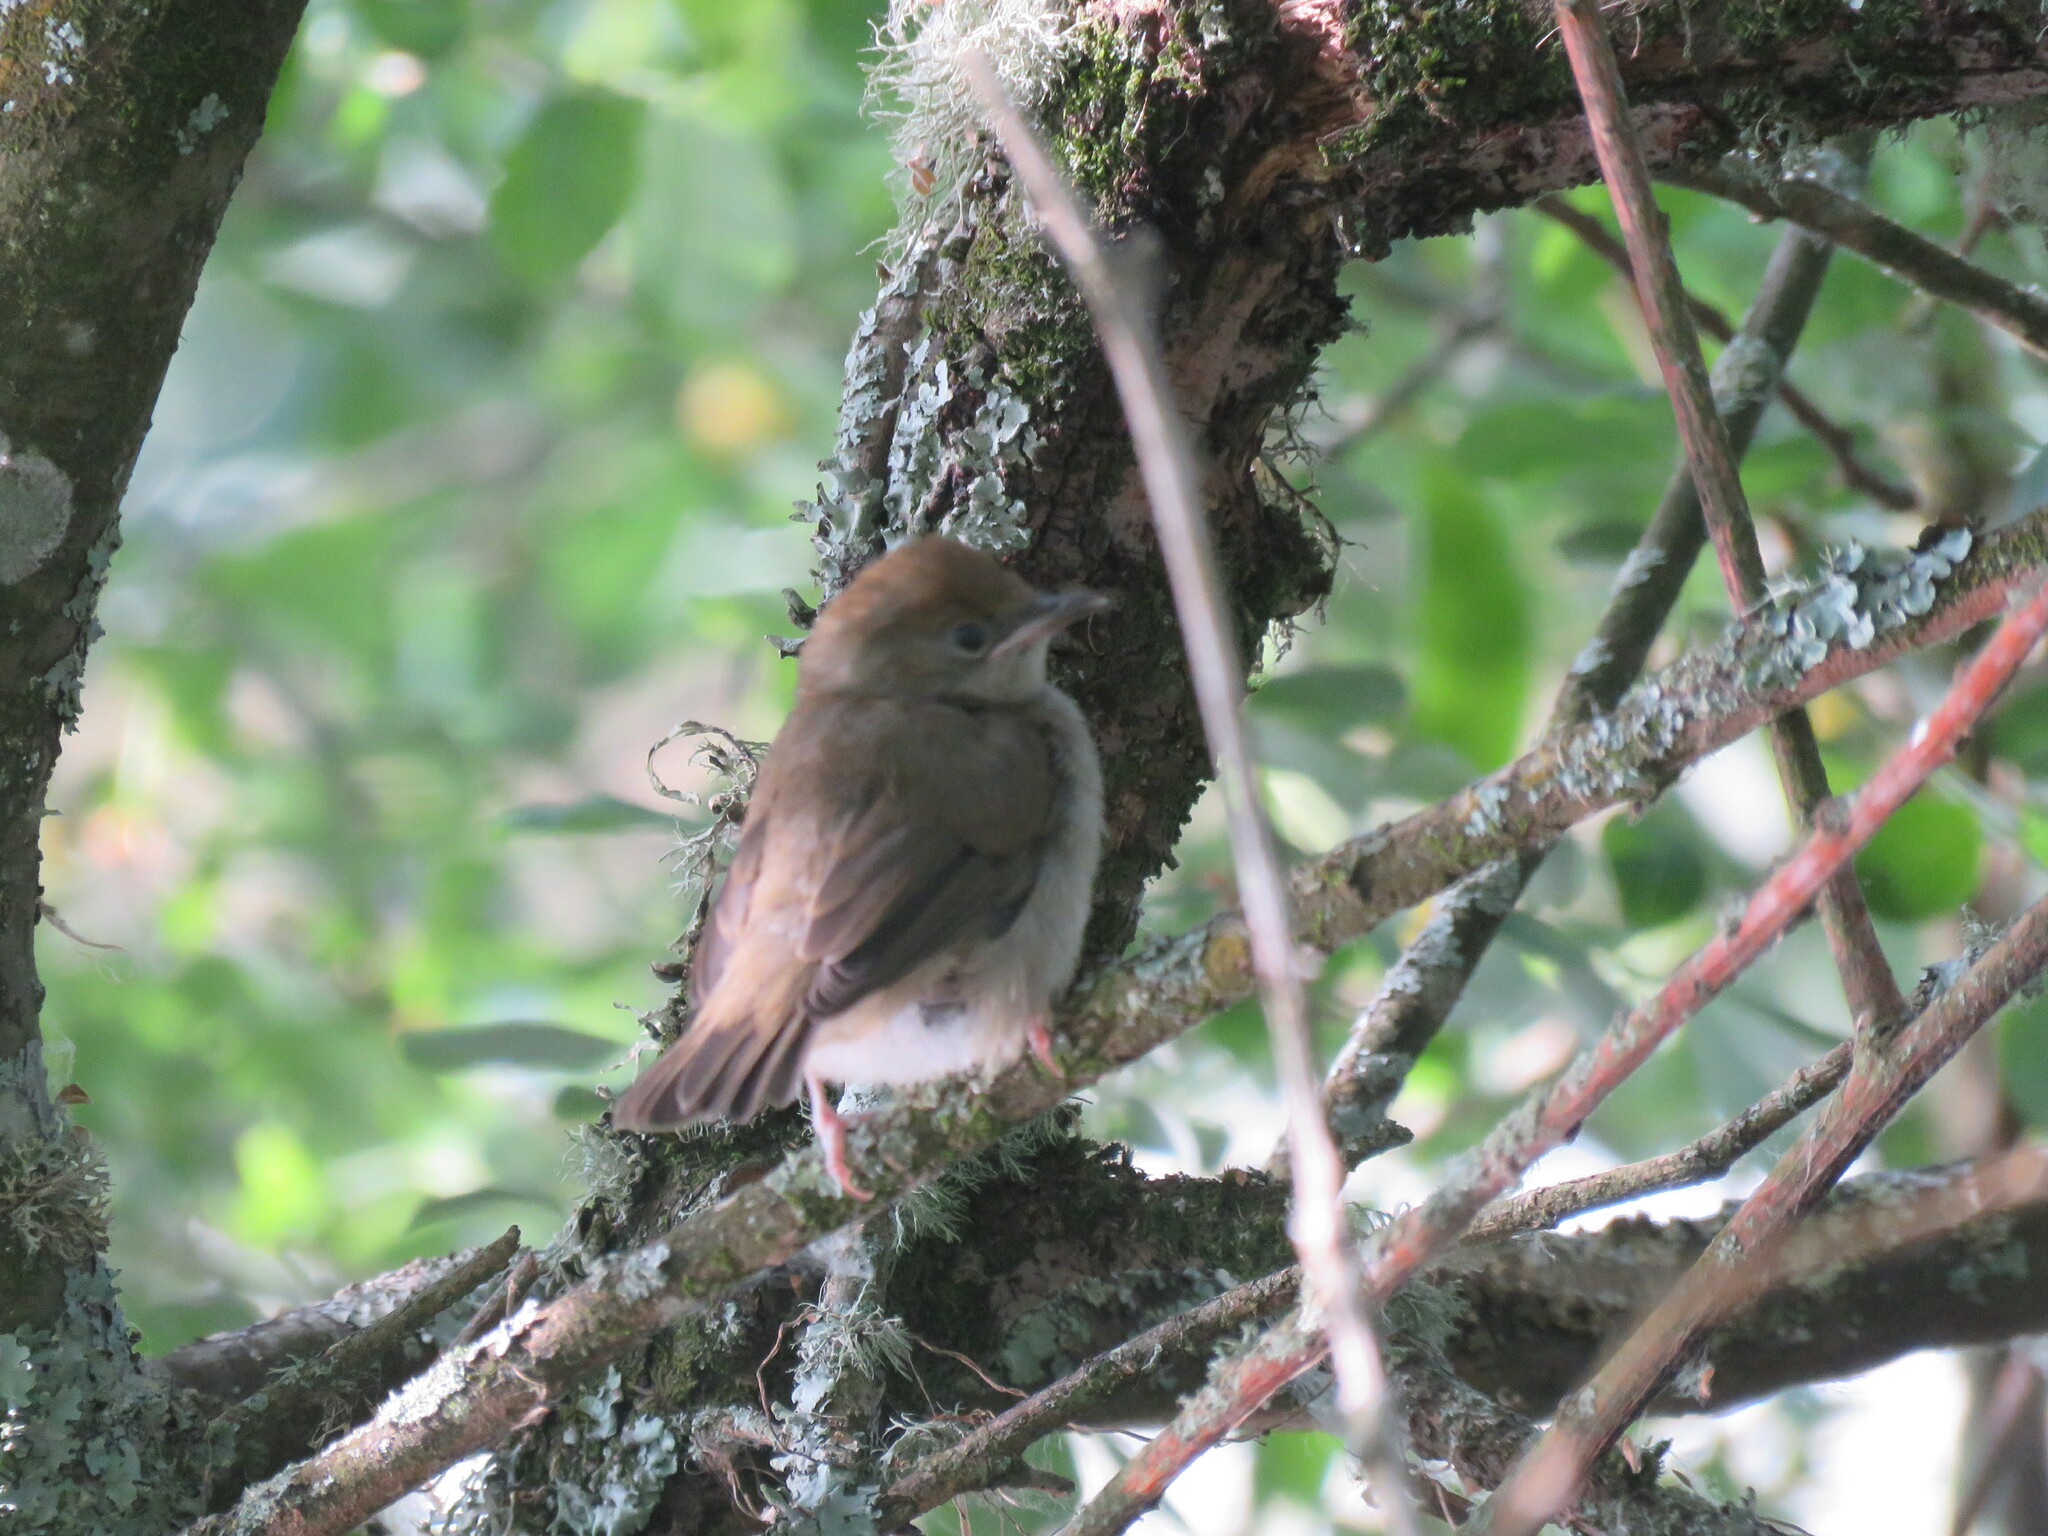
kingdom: Animalia
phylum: Chordata
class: Aves
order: Passeriformes
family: Sylviidae
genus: Sylvia
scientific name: Sylvia atricapilla
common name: Eurasian blackcap
